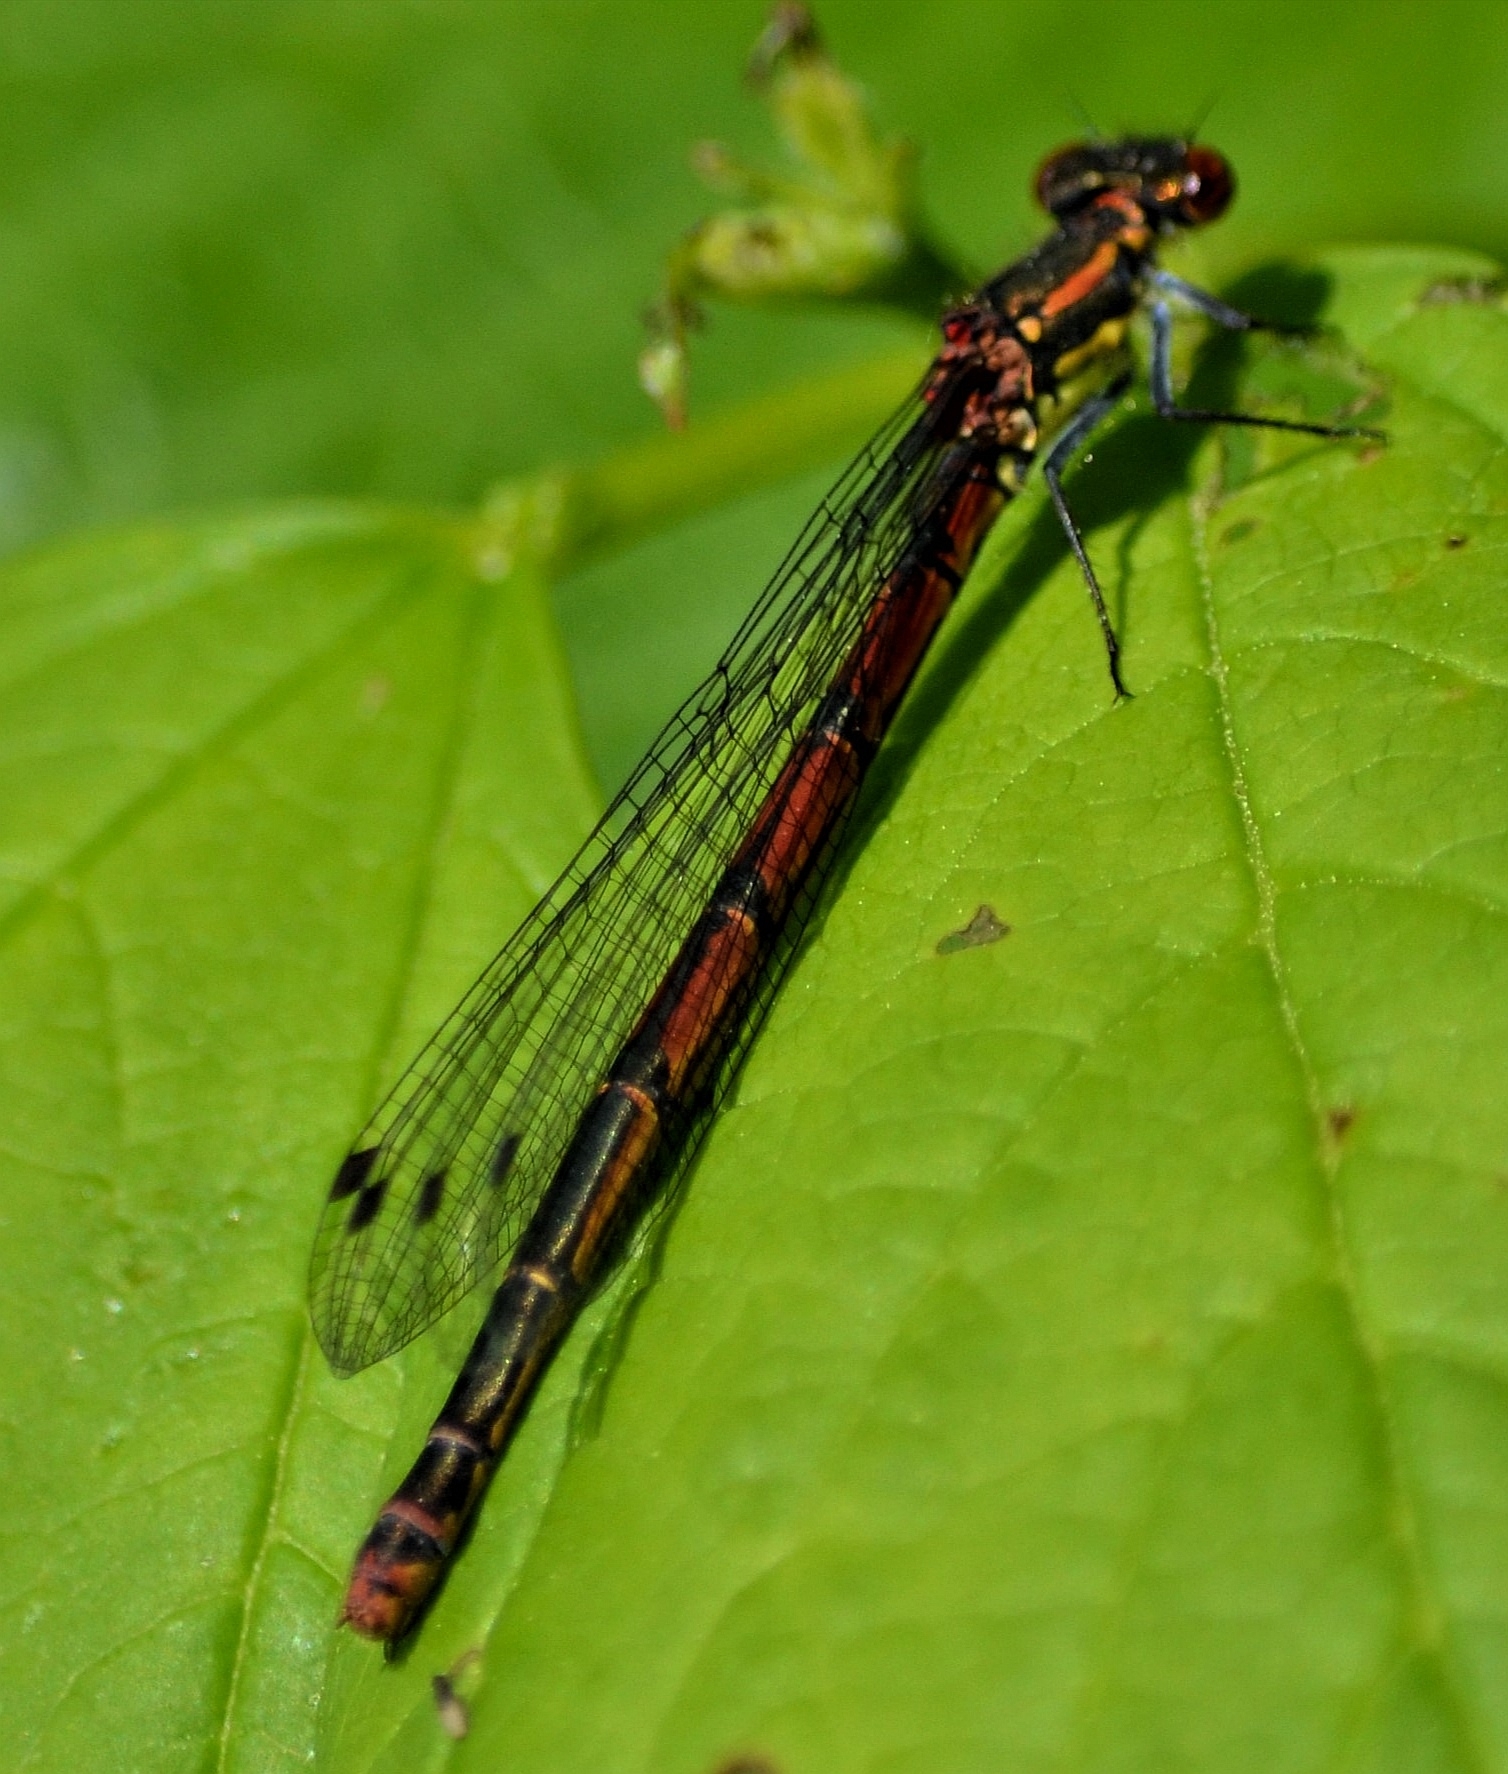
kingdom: Animalia
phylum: Arthropoda
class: Insecta
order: Odonata
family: Coenagrionidae
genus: Pyrrhosoma
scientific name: Pyrrhosoma nymphula
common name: Large red damsel
